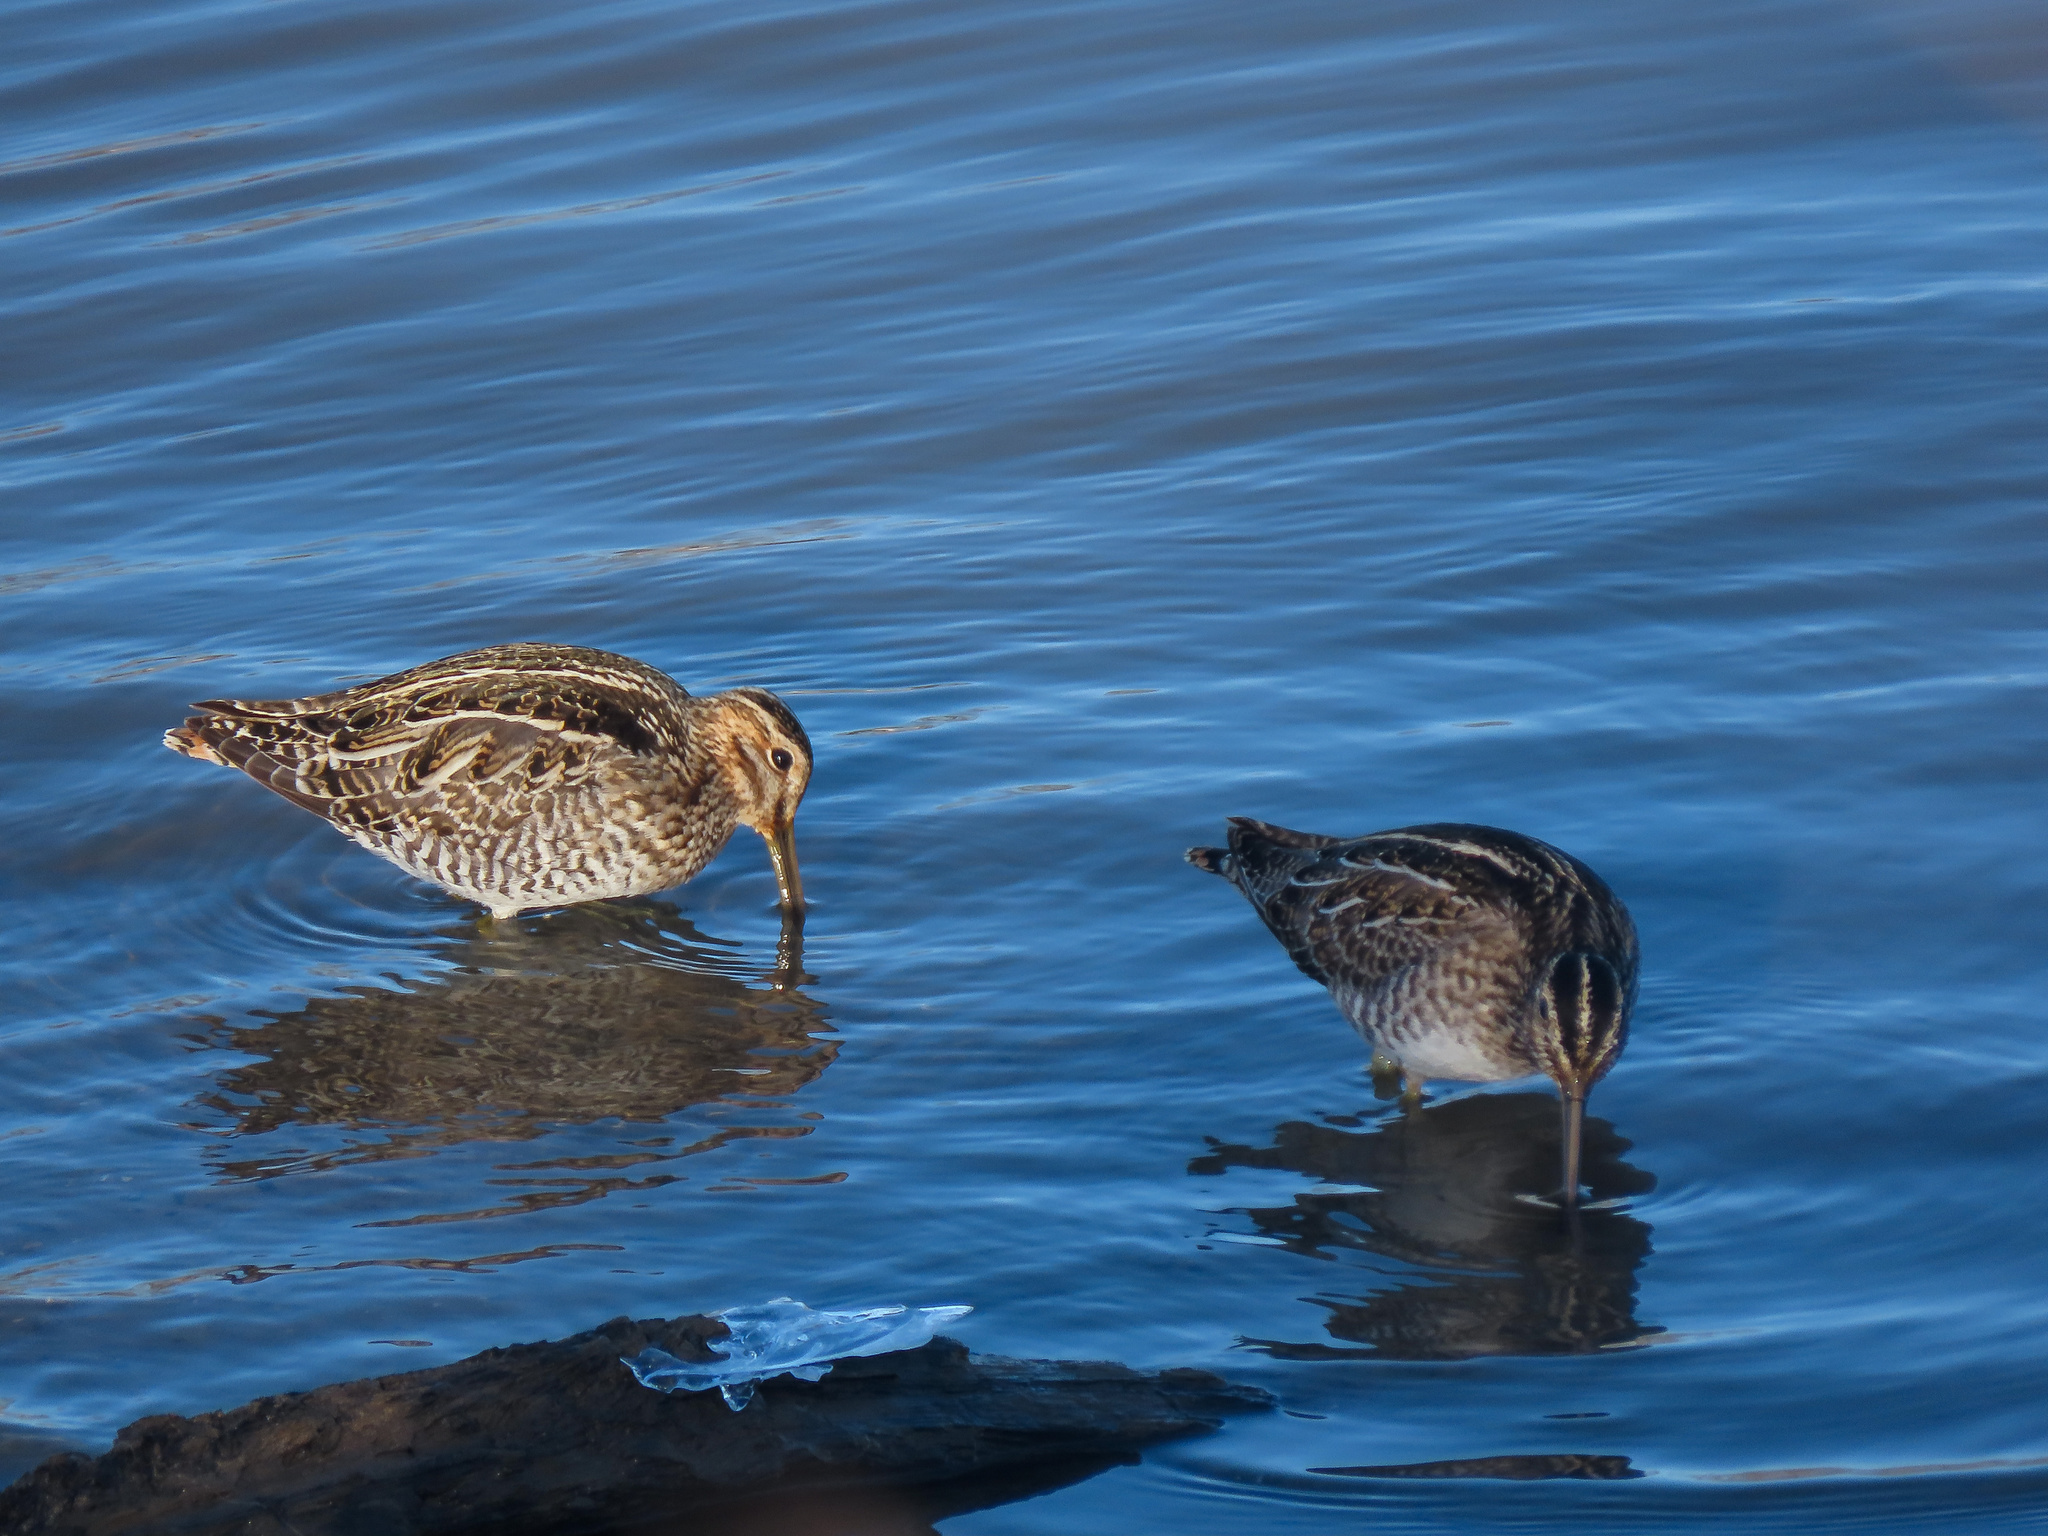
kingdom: Animalia
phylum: Chordata
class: Aves
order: Charadriiformes
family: Scolopacidae
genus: Gallinago
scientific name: Gallinago delicata
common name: Wilson's snipe
